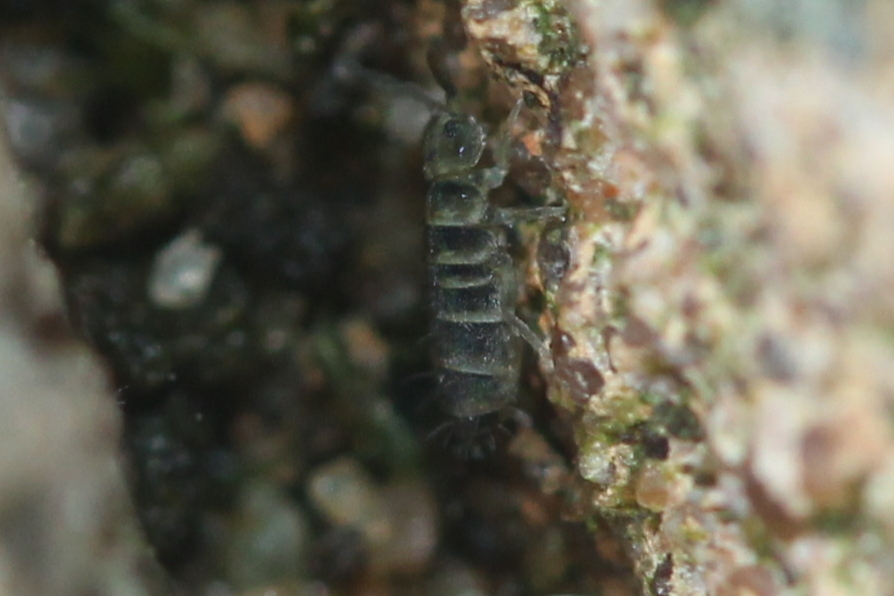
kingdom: Animalia
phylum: Arthropoda
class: Collembola
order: Entomobryomorpha
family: Isotomidae
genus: Isotomurus
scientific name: Isotomurus bimus
